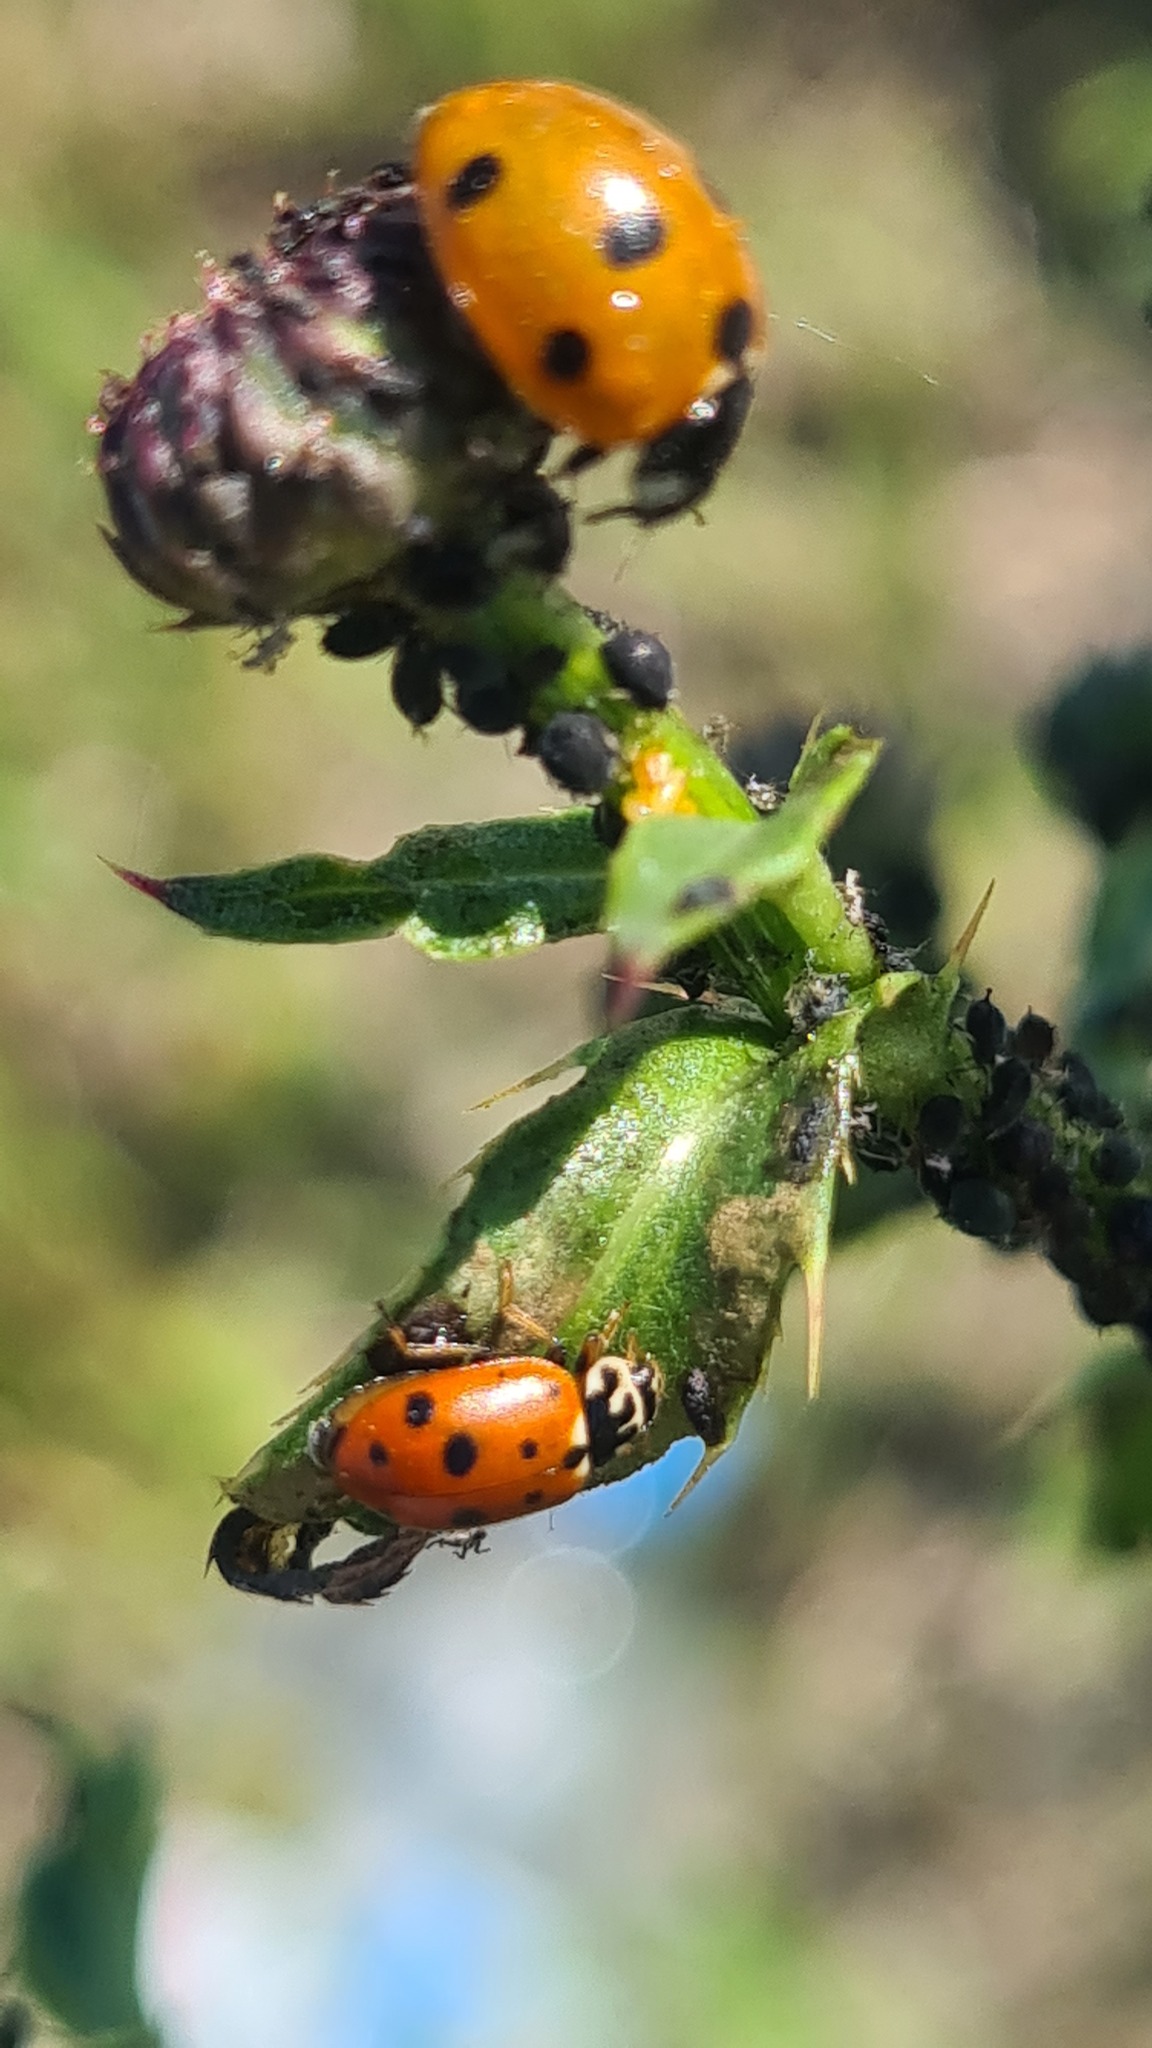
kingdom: Animalia
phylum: Arthropoda
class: Insecta
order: Coleoptera
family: Coccinellidae
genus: Hippodamia
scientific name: Hippodamia variegata
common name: Ladybird beetle
